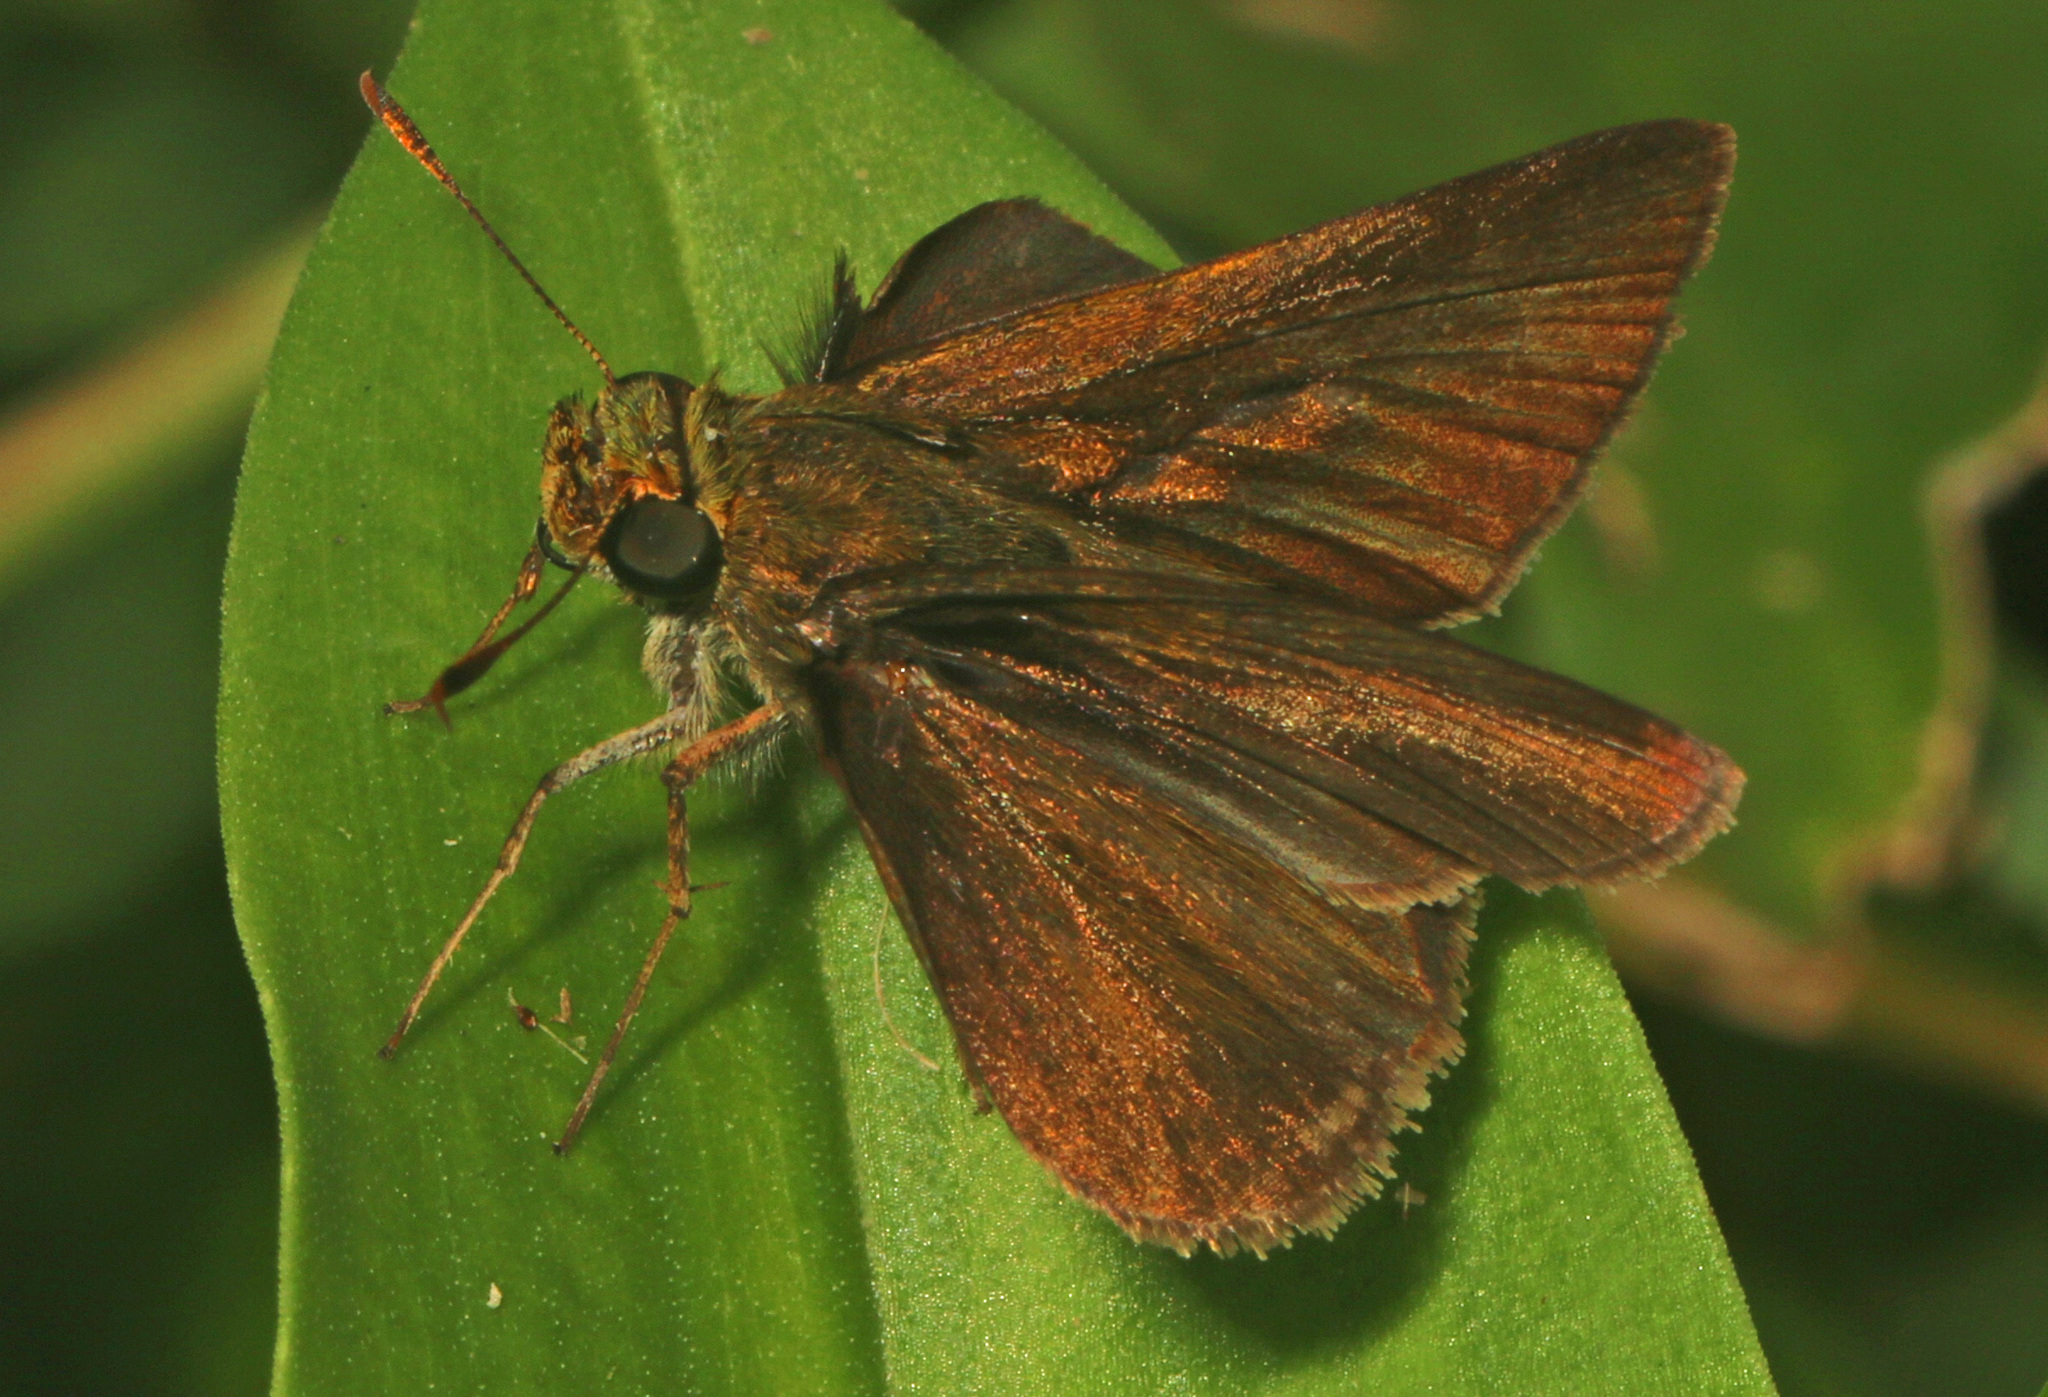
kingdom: Animalia
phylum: Arthropoda
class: Insecta
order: Lepidoptera
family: Hesperiidae
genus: Euphyes
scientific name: Euphyes vestris
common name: Dun skipper
